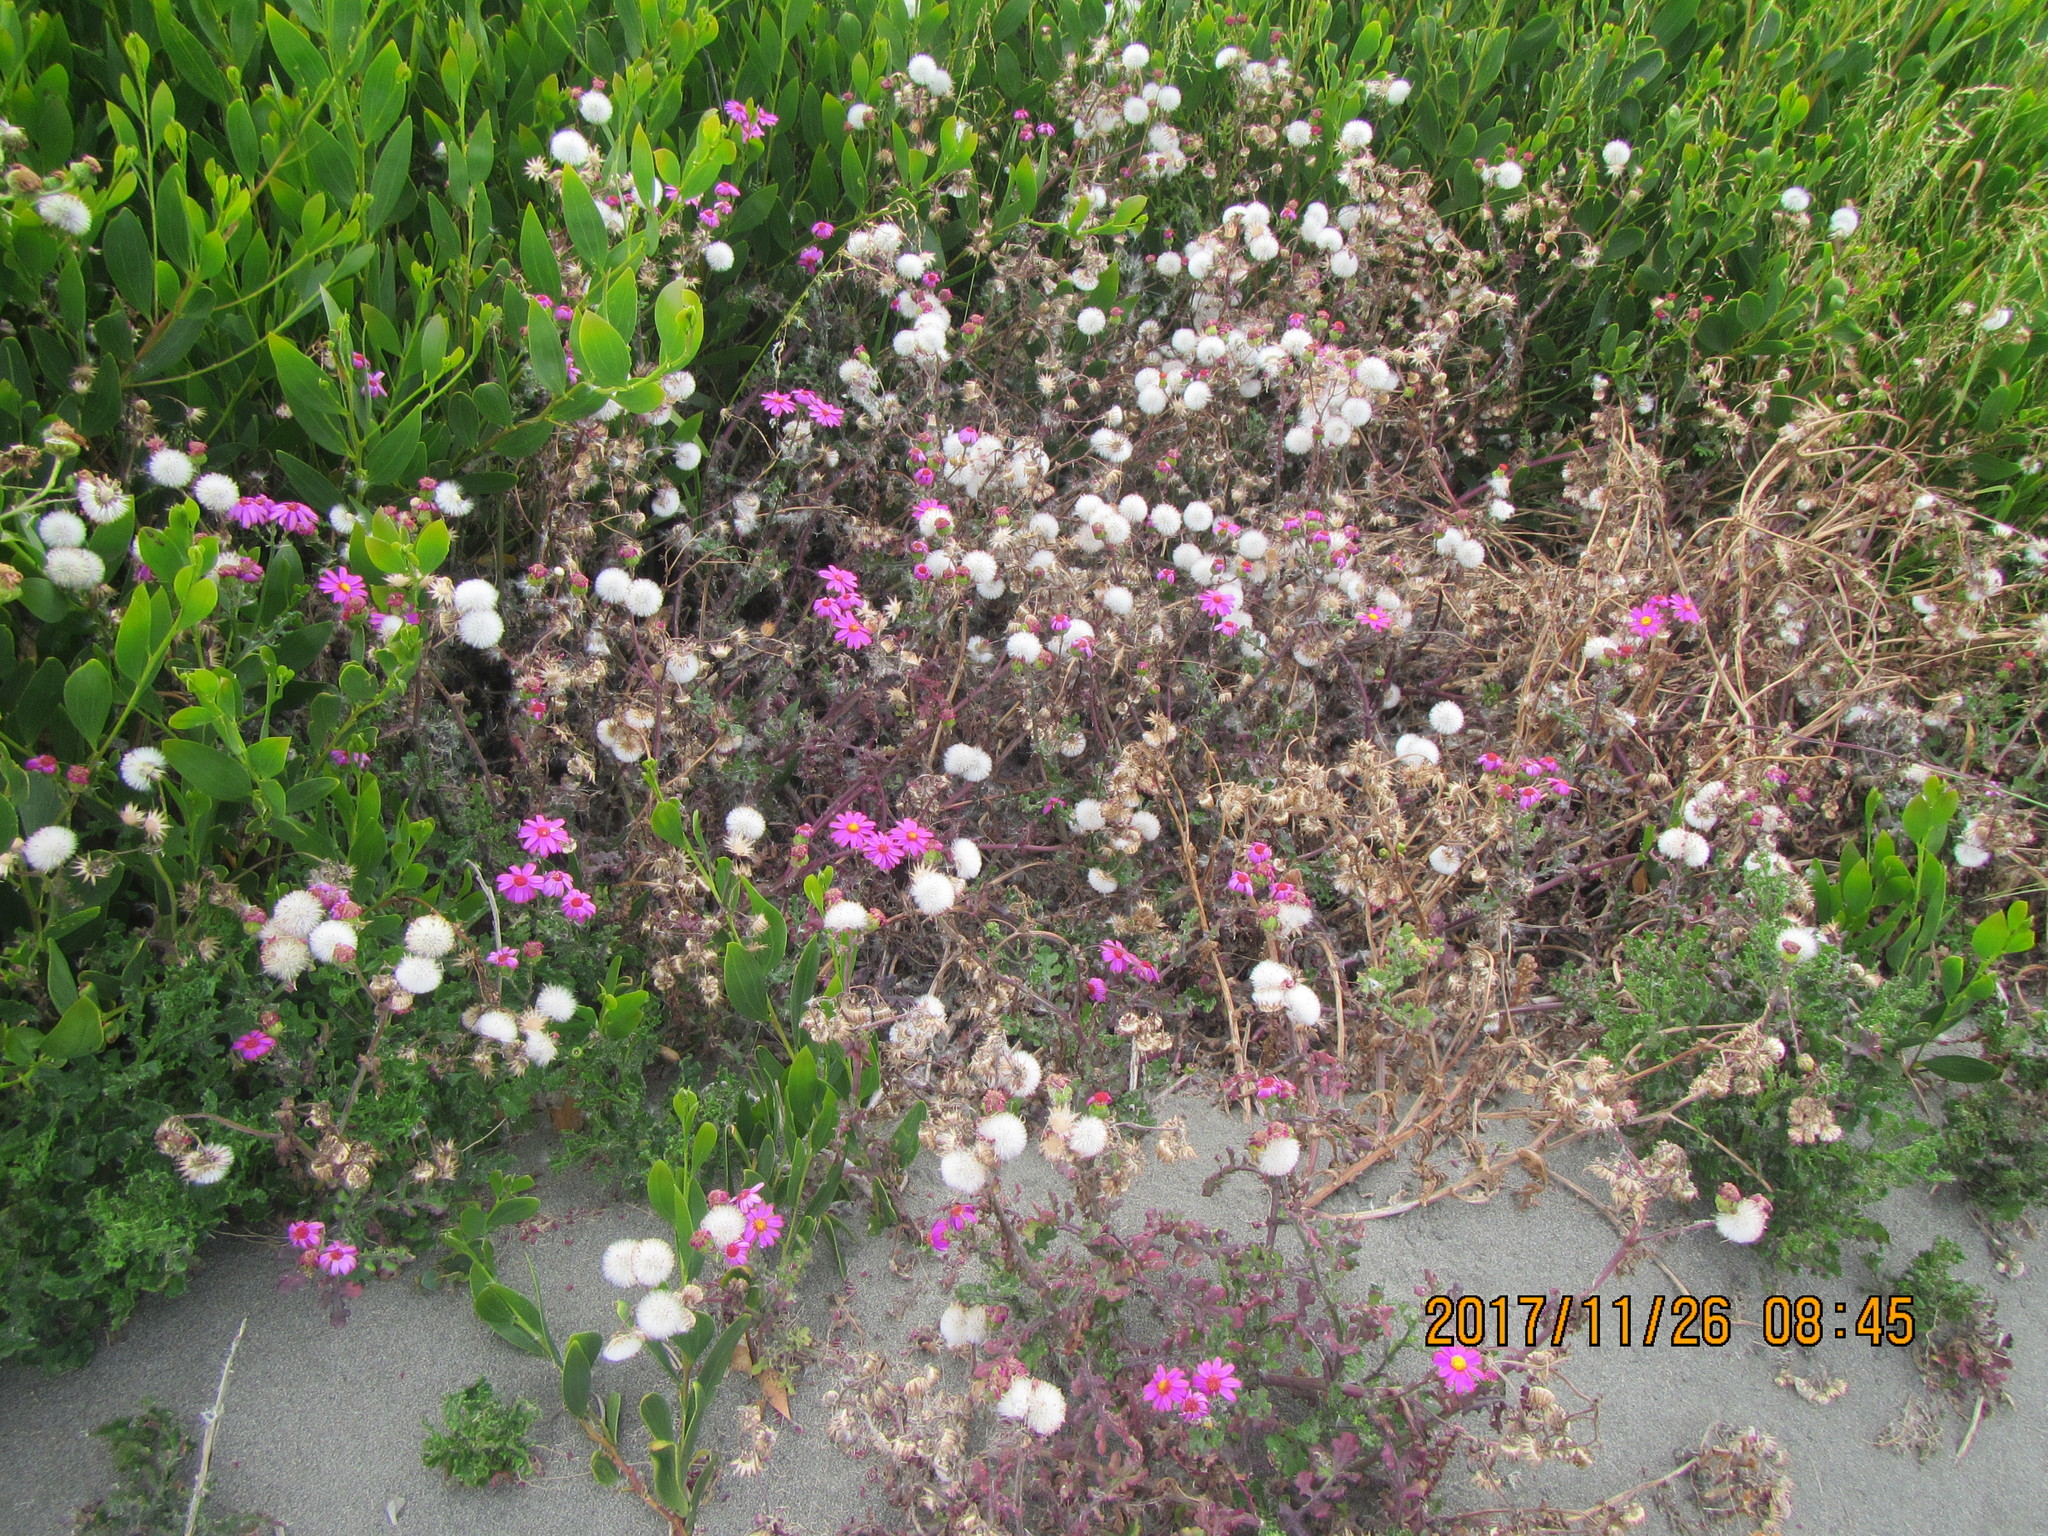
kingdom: Plantae
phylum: Tracheophyta
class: Magnoliopsida
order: Asterales
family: Asteraceae
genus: Senecio
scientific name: Senecio elegans
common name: Purple groundsel
